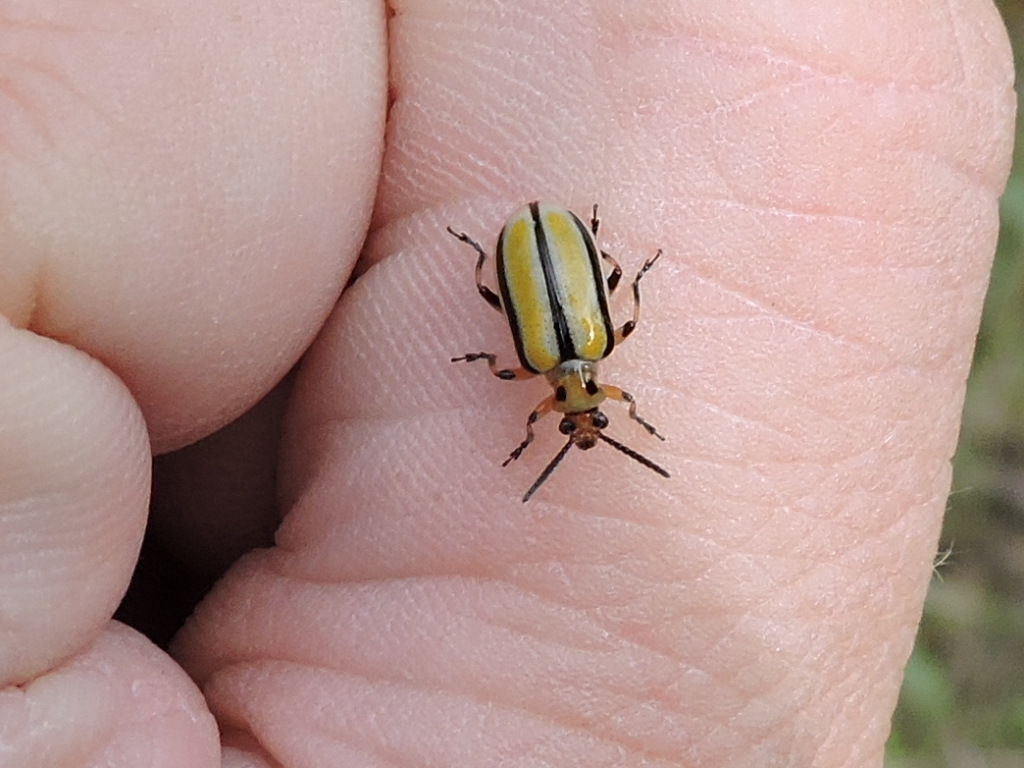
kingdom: Animalia
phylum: Arthropoda
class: Insecta
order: Coleoptera
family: Chrysomelidae
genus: Lema
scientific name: Lema trivittata
